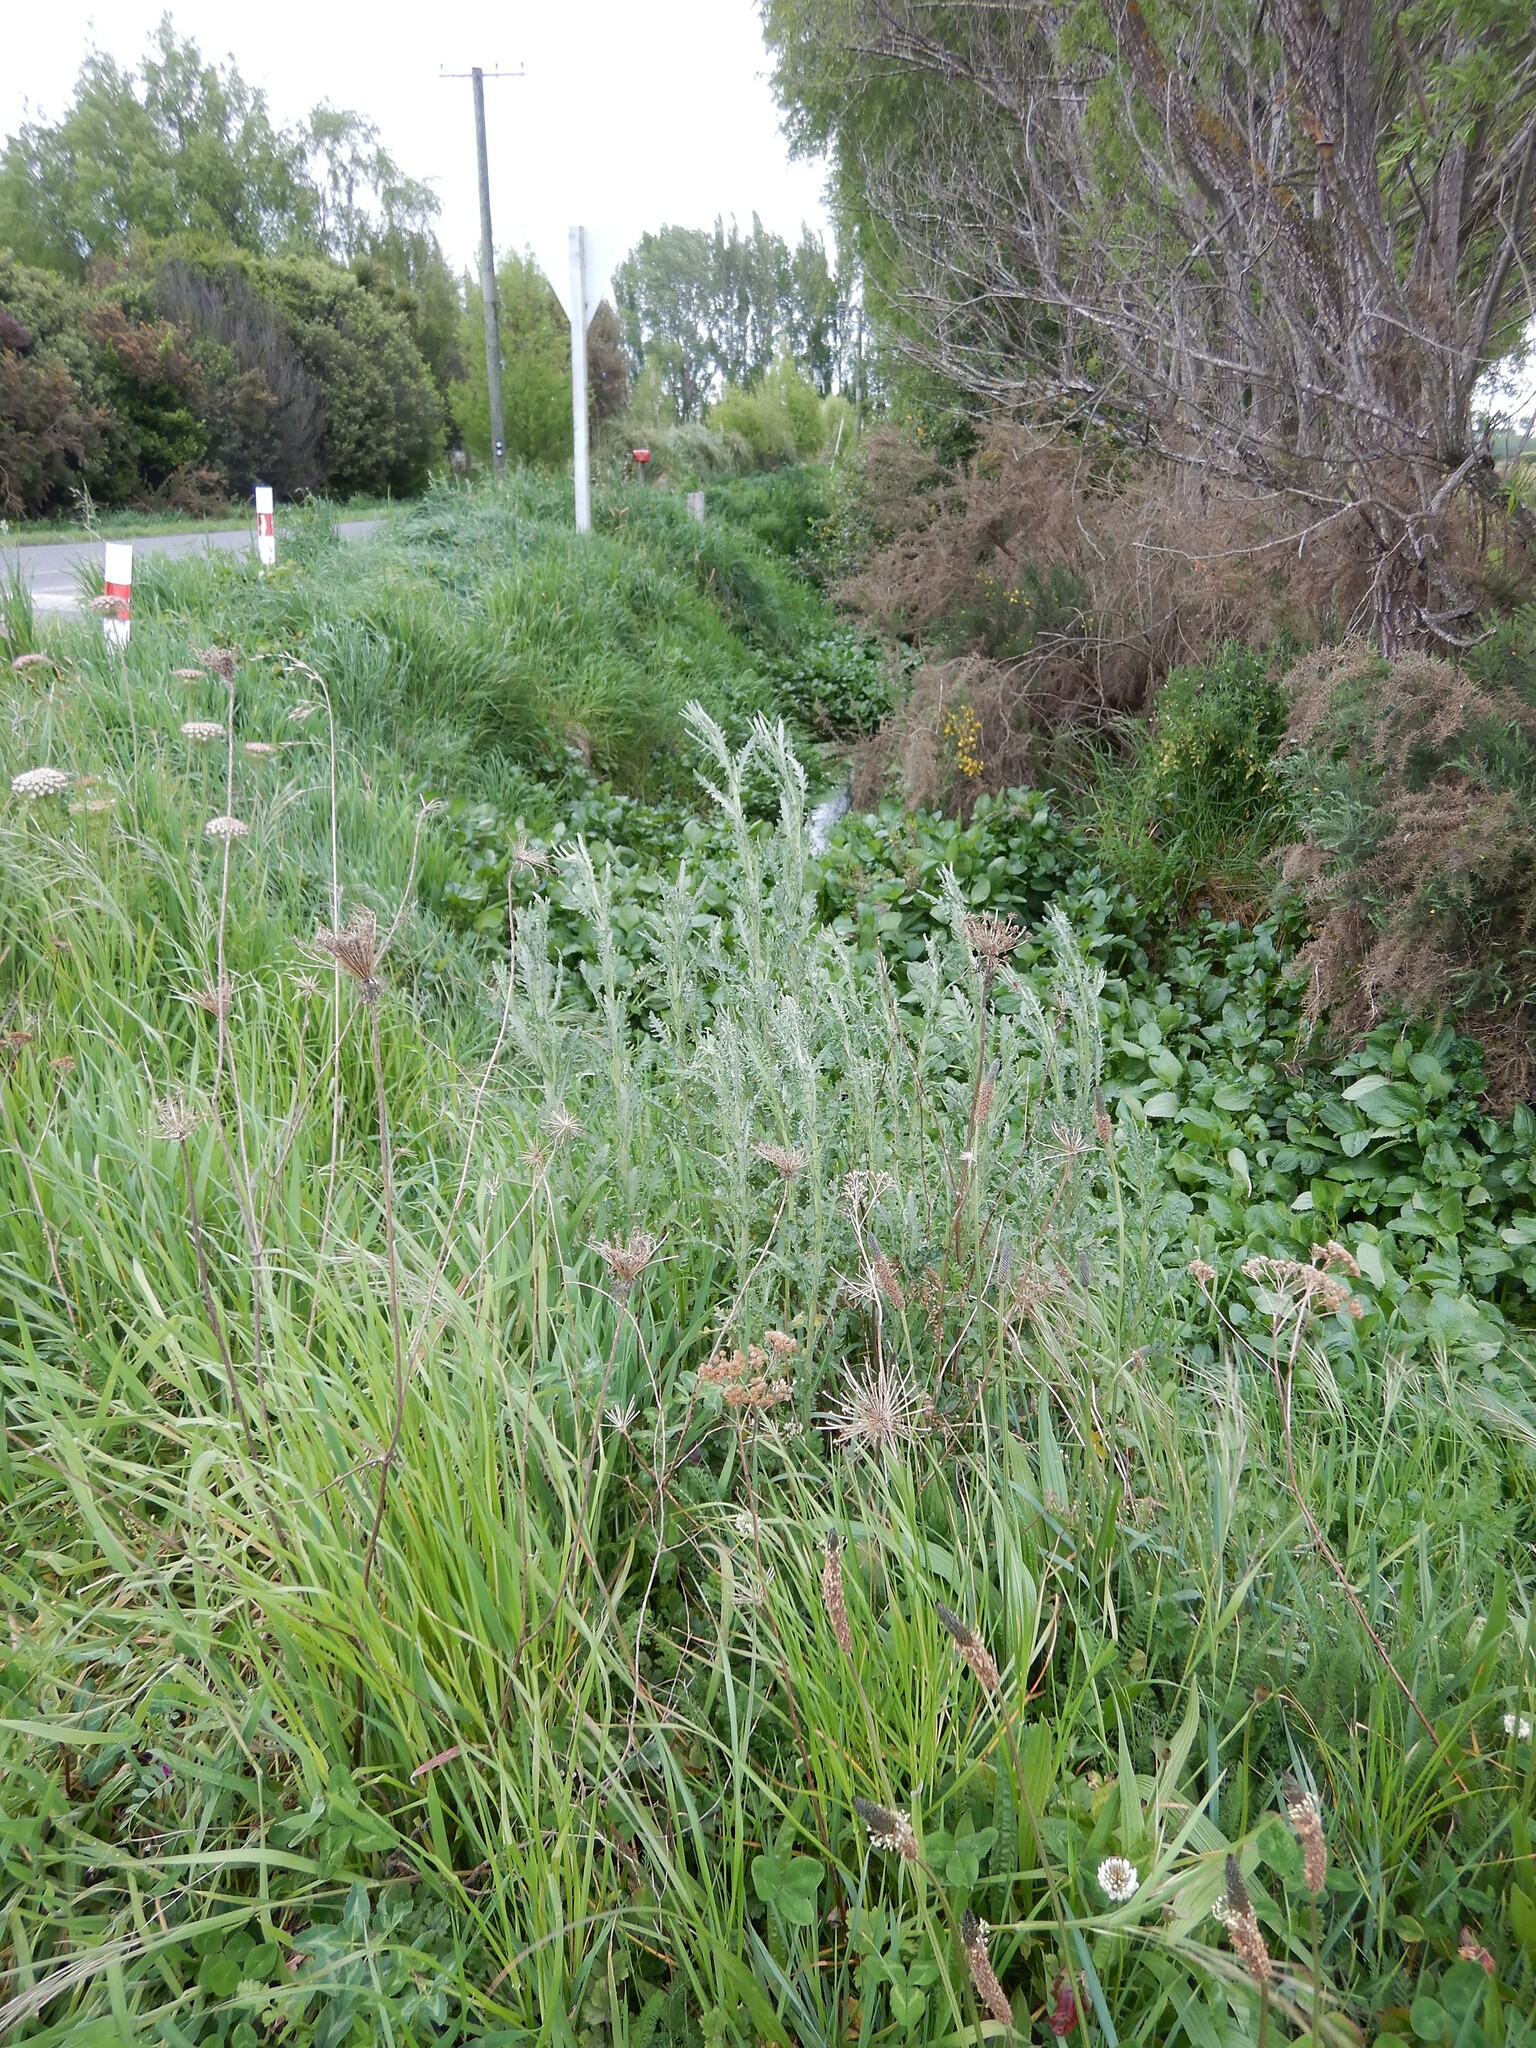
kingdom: Plantae
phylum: Tracheophyta
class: Magnoliopsida
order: Asterales
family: Asteraceae
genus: Senecio
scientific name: Senecio glomeratus
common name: Cutleaf burnweed
